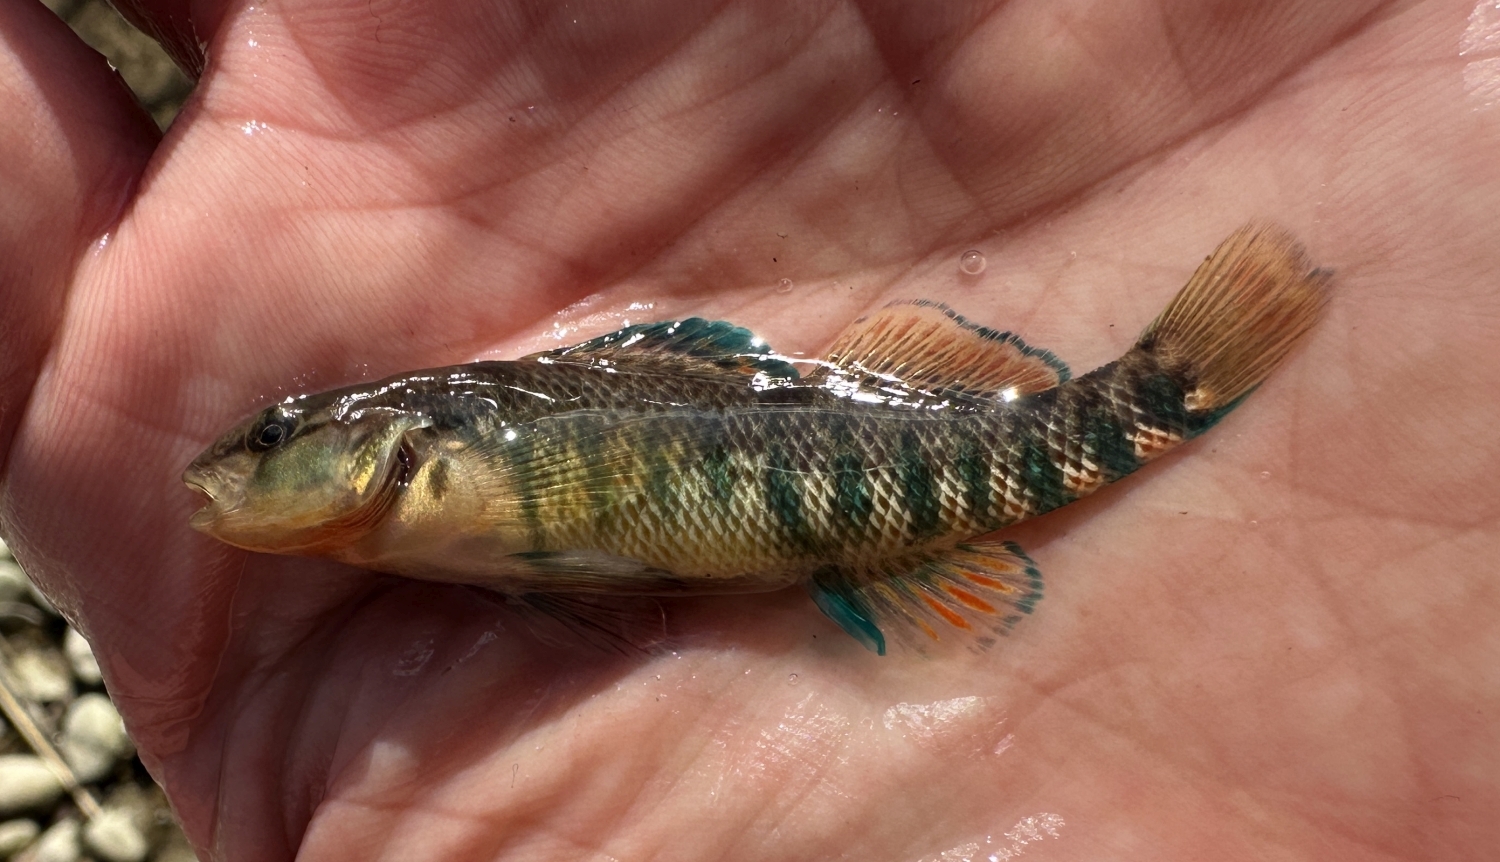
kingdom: Animalia
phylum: Chordata
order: Perciformes
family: Percidae
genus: Etheostoma
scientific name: Etheostoma caeruleum
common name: Rainbow darter
